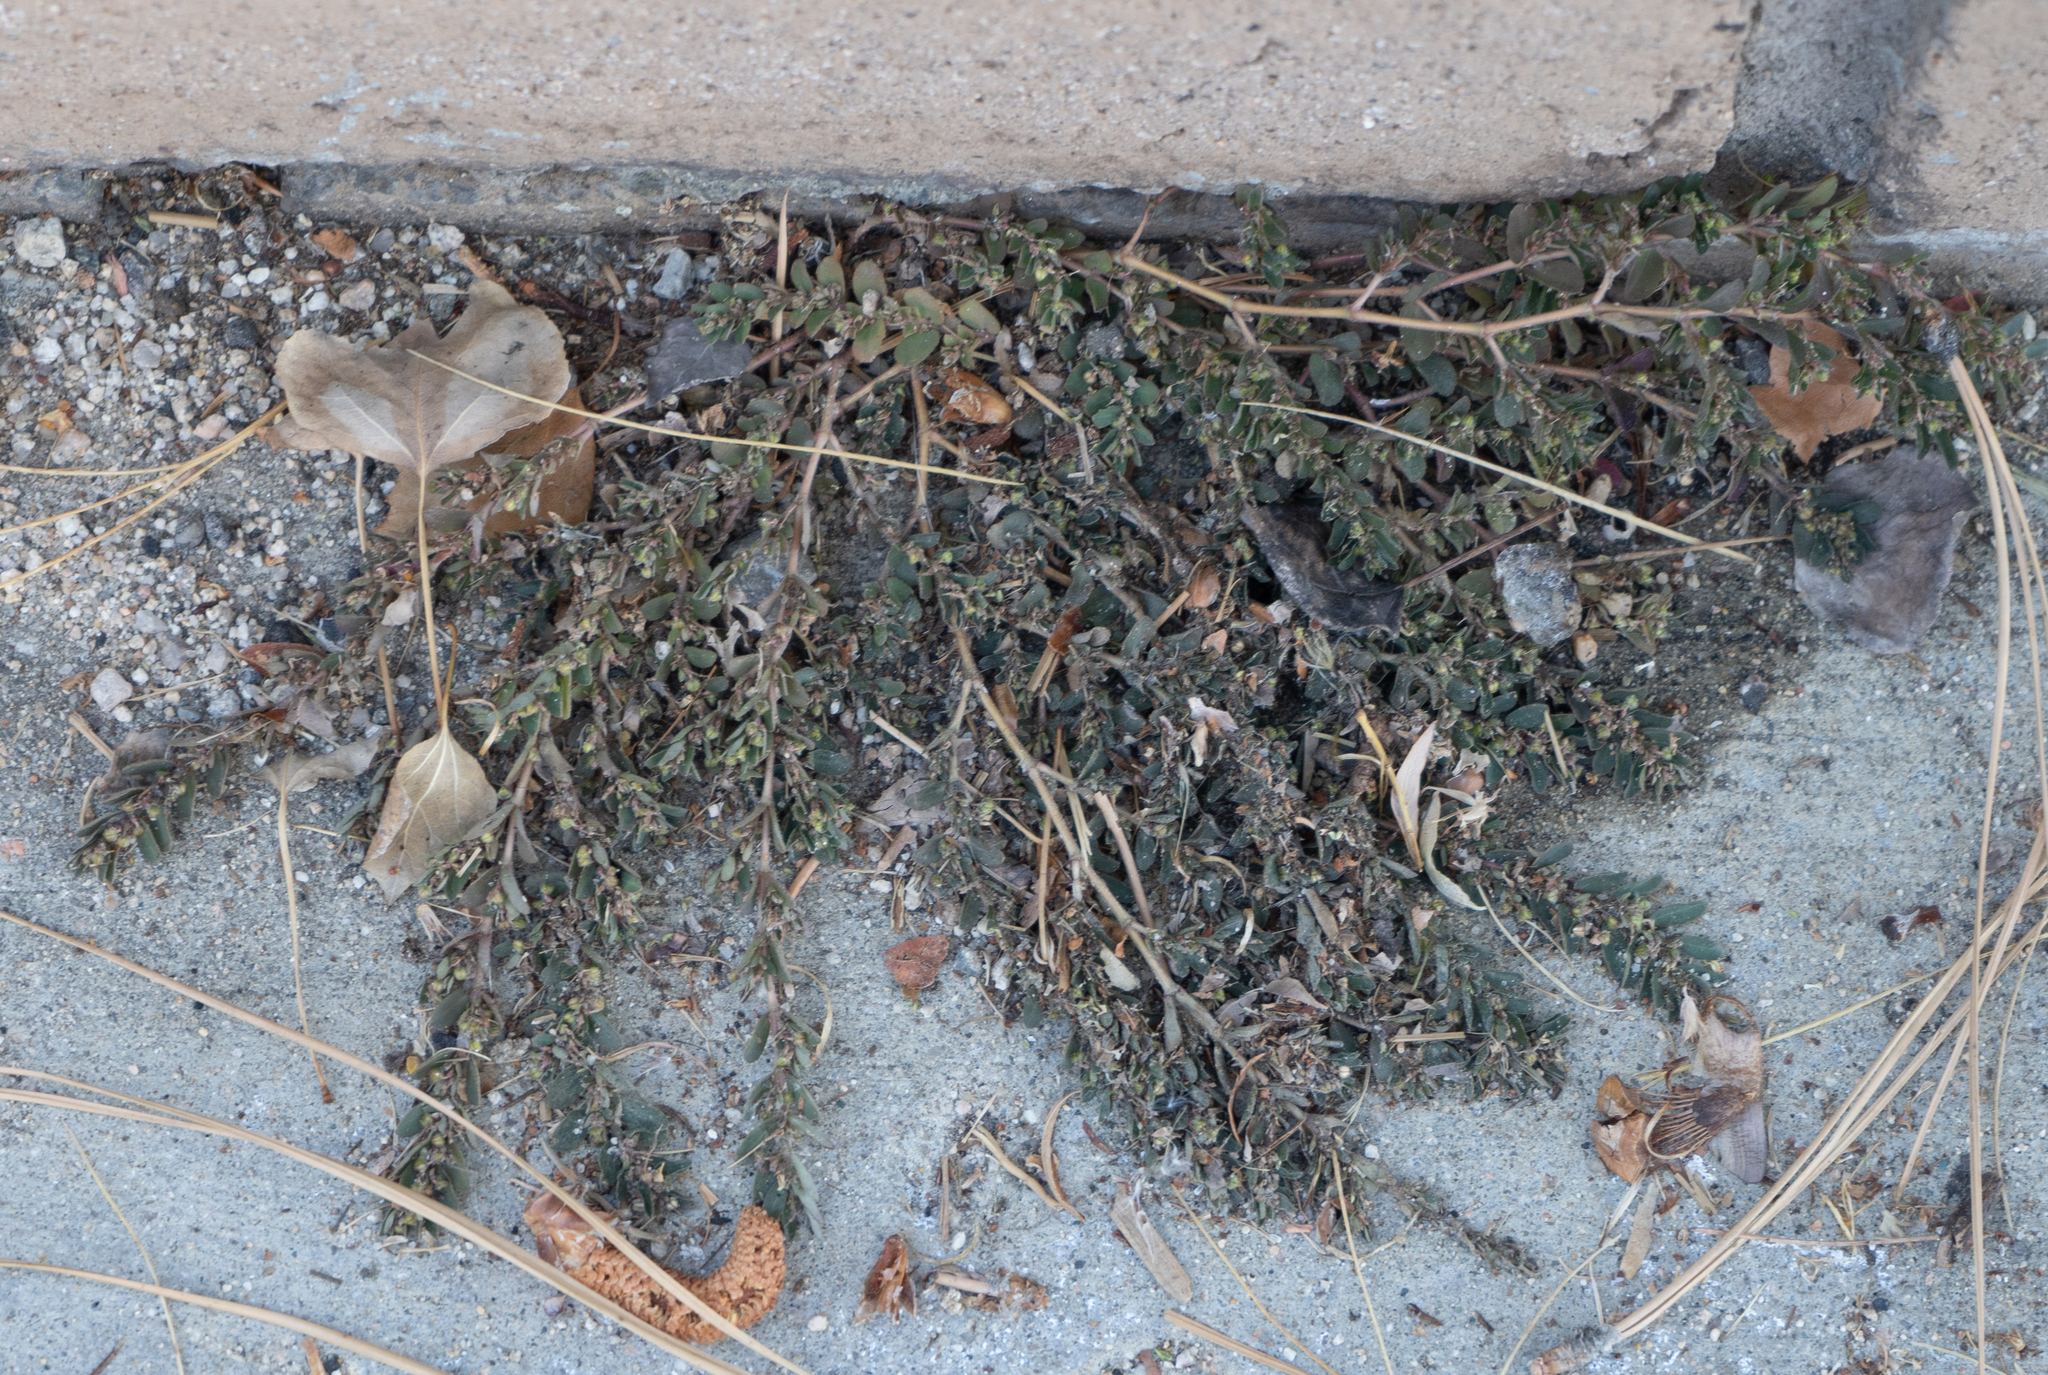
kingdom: Plantae
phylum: Tracheophyta
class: Magnoliopsida
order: Malpighiales
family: Euphorbiaceae
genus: Euphorbia
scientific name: Euphorbia prostrata
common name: Prostrate sandmat
